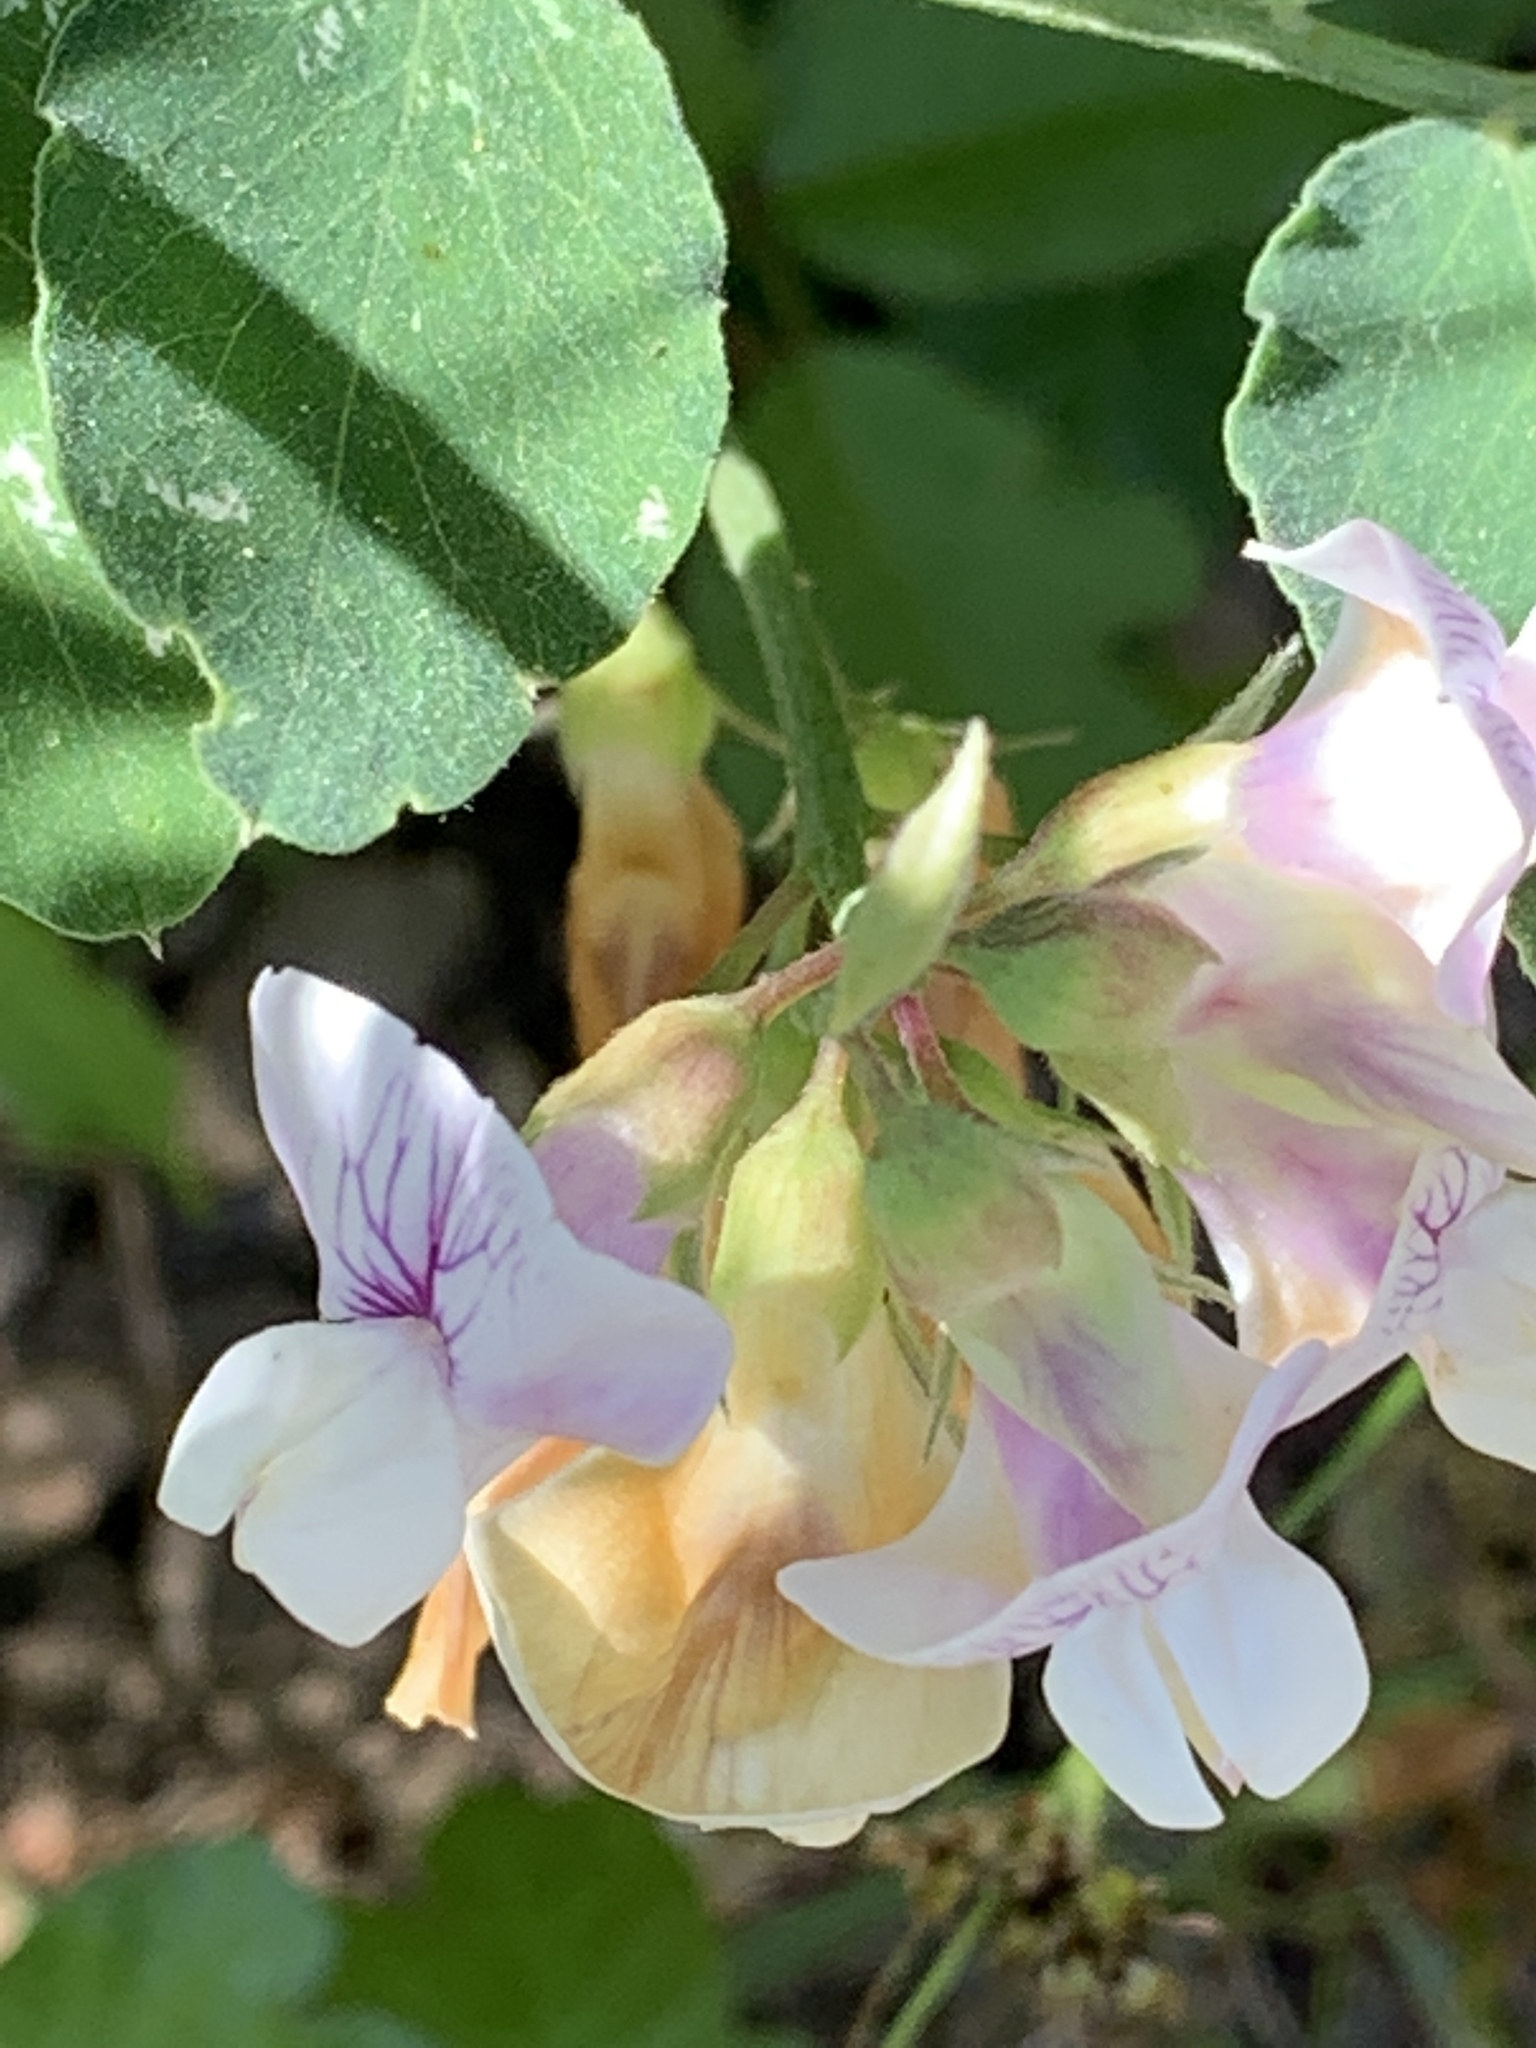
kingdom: Plantae
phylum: Tracheophyta
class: Magnoliopsida
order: Fabales
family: Fabaceae
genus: Lathyrus
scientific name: Lathyrus vestitus
